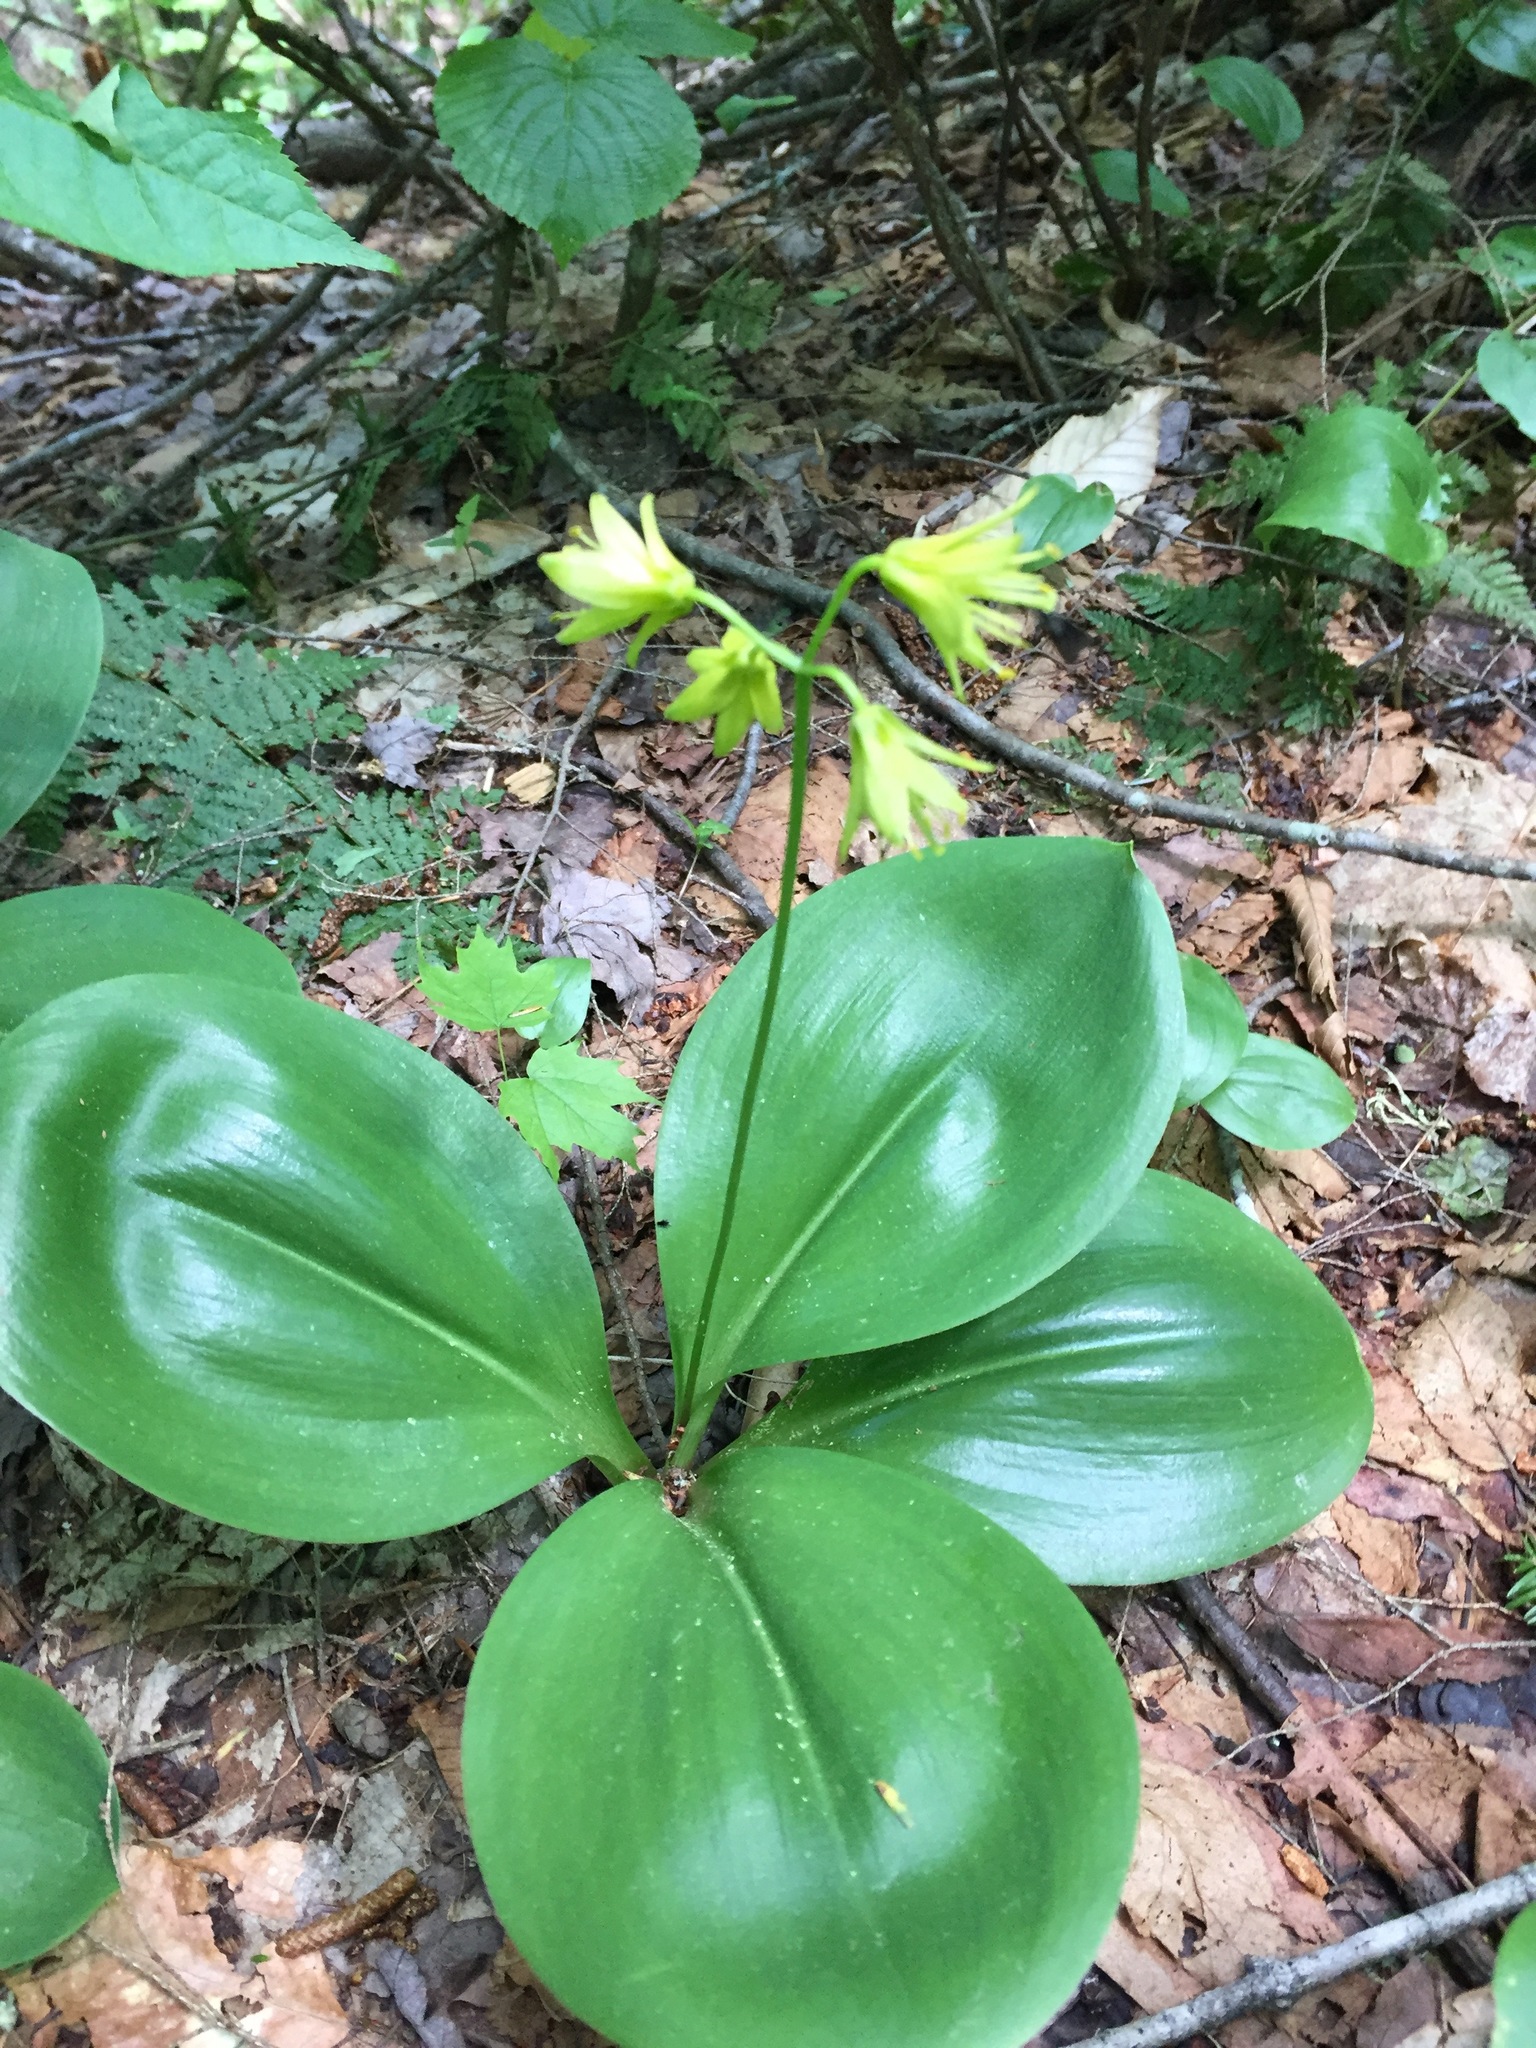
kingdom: Plantae
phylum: Tracheophyta
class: Liliopsida
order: Liliales
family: Liliaceae
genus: Clintonia
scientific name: Clintonia borealis
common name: Yellow clintonia
